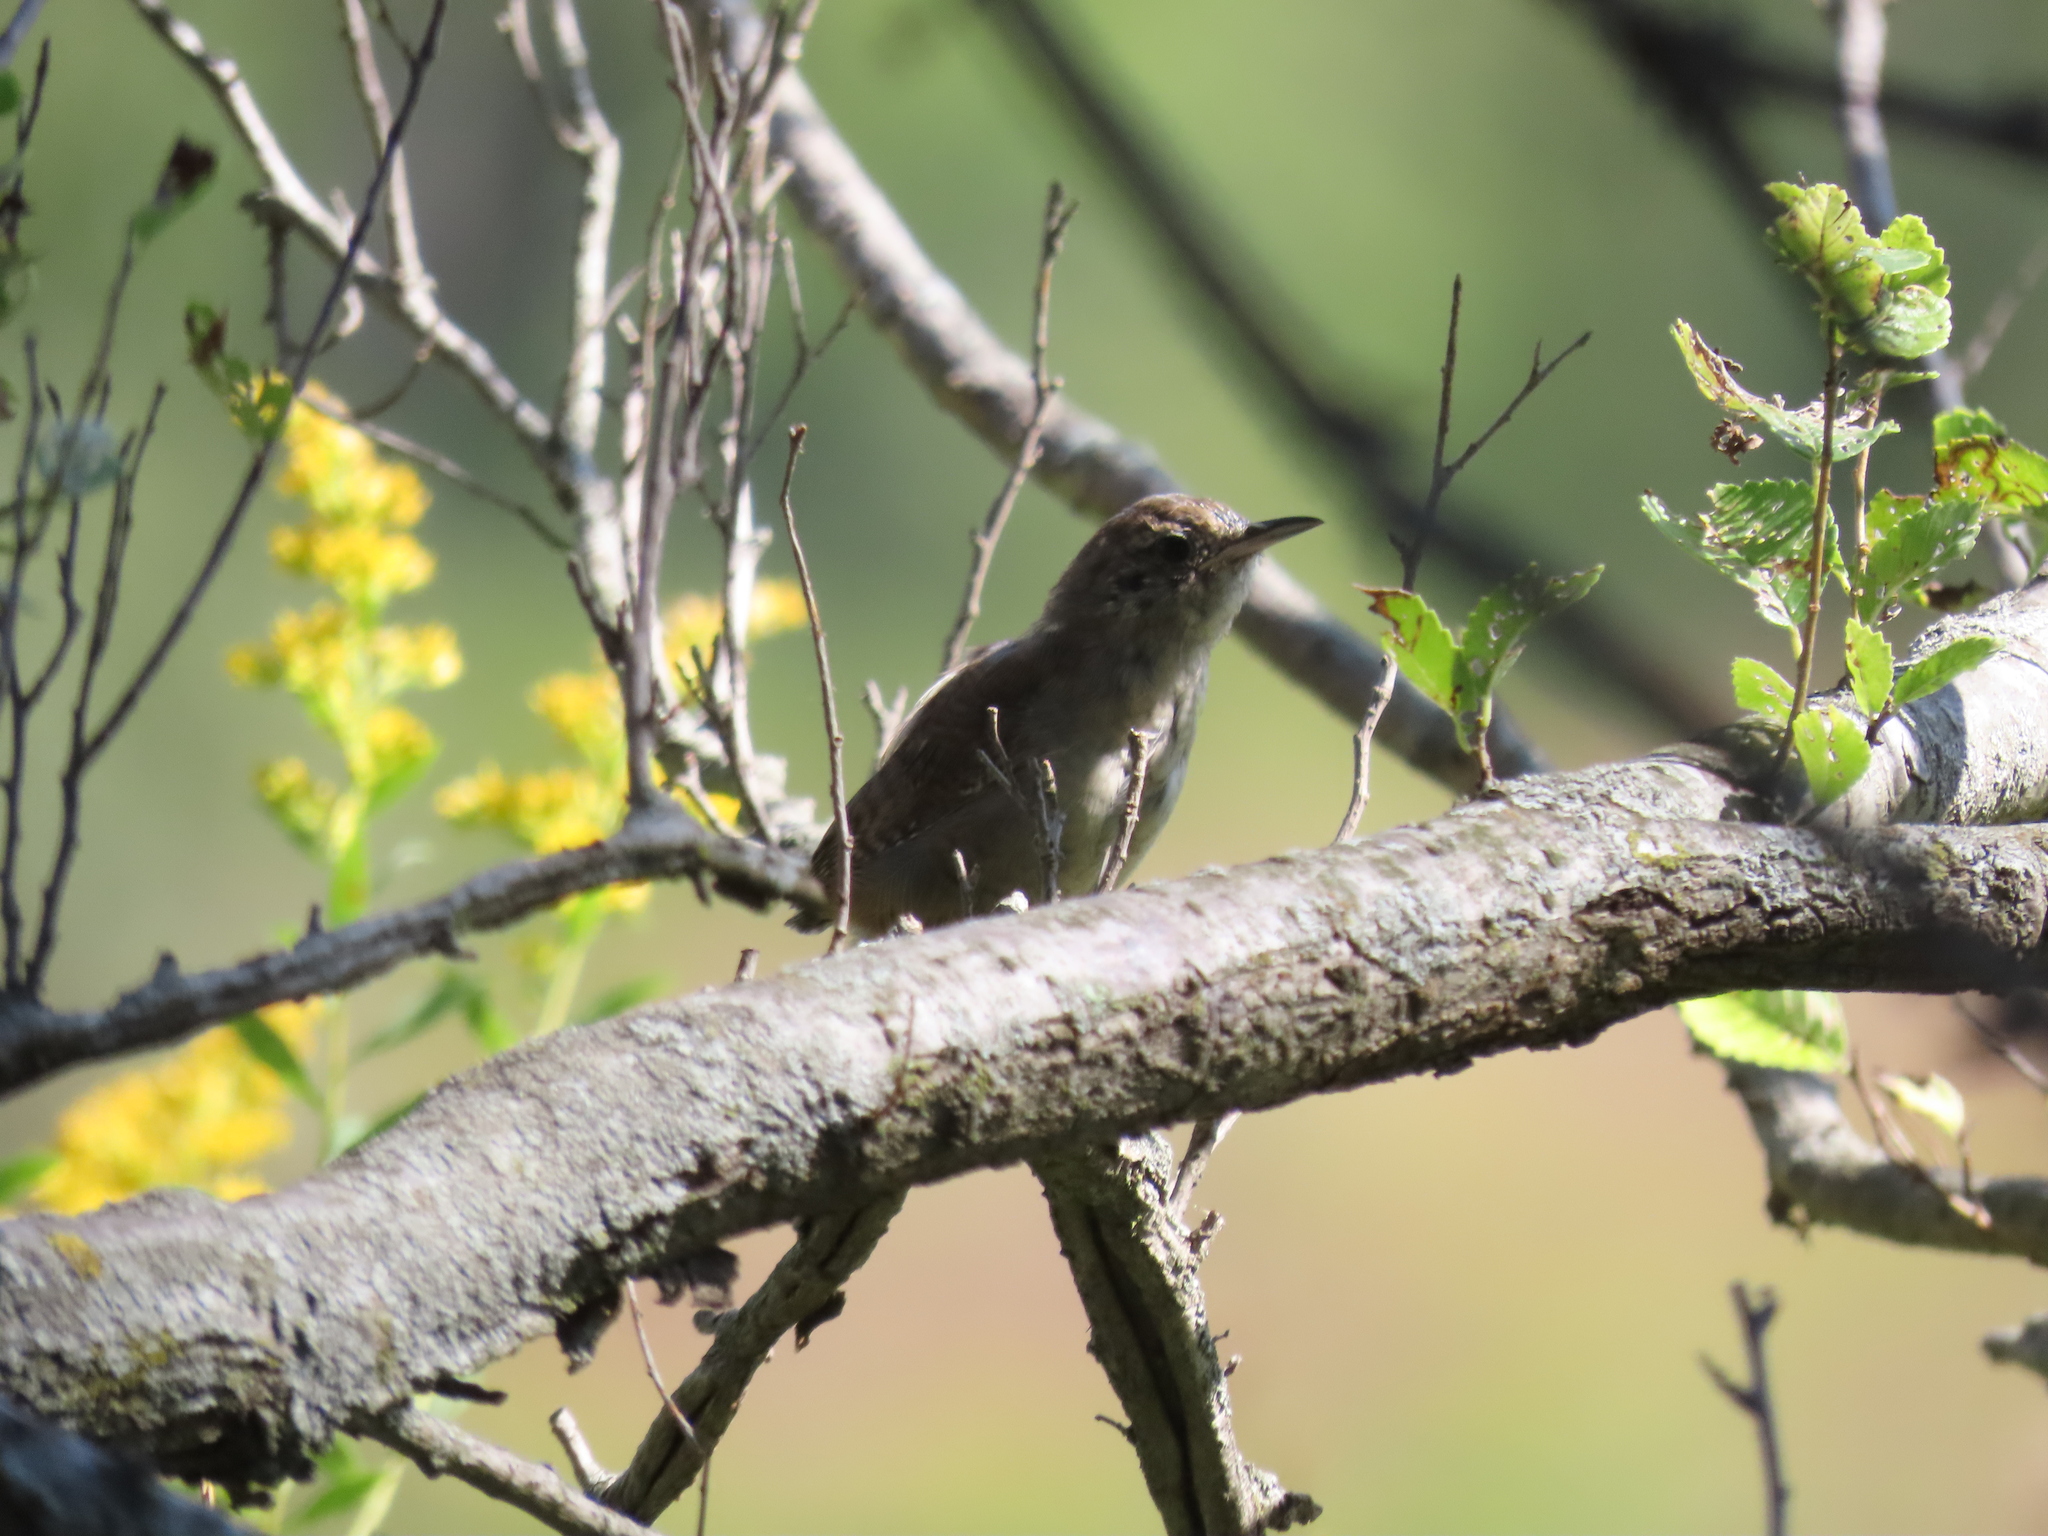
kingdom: Animalia
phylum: Chordata
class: Aves
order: Passeriformes
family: Troglodytidae
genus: Troglodytes
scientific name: Troglodytes aedon
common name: House wren
